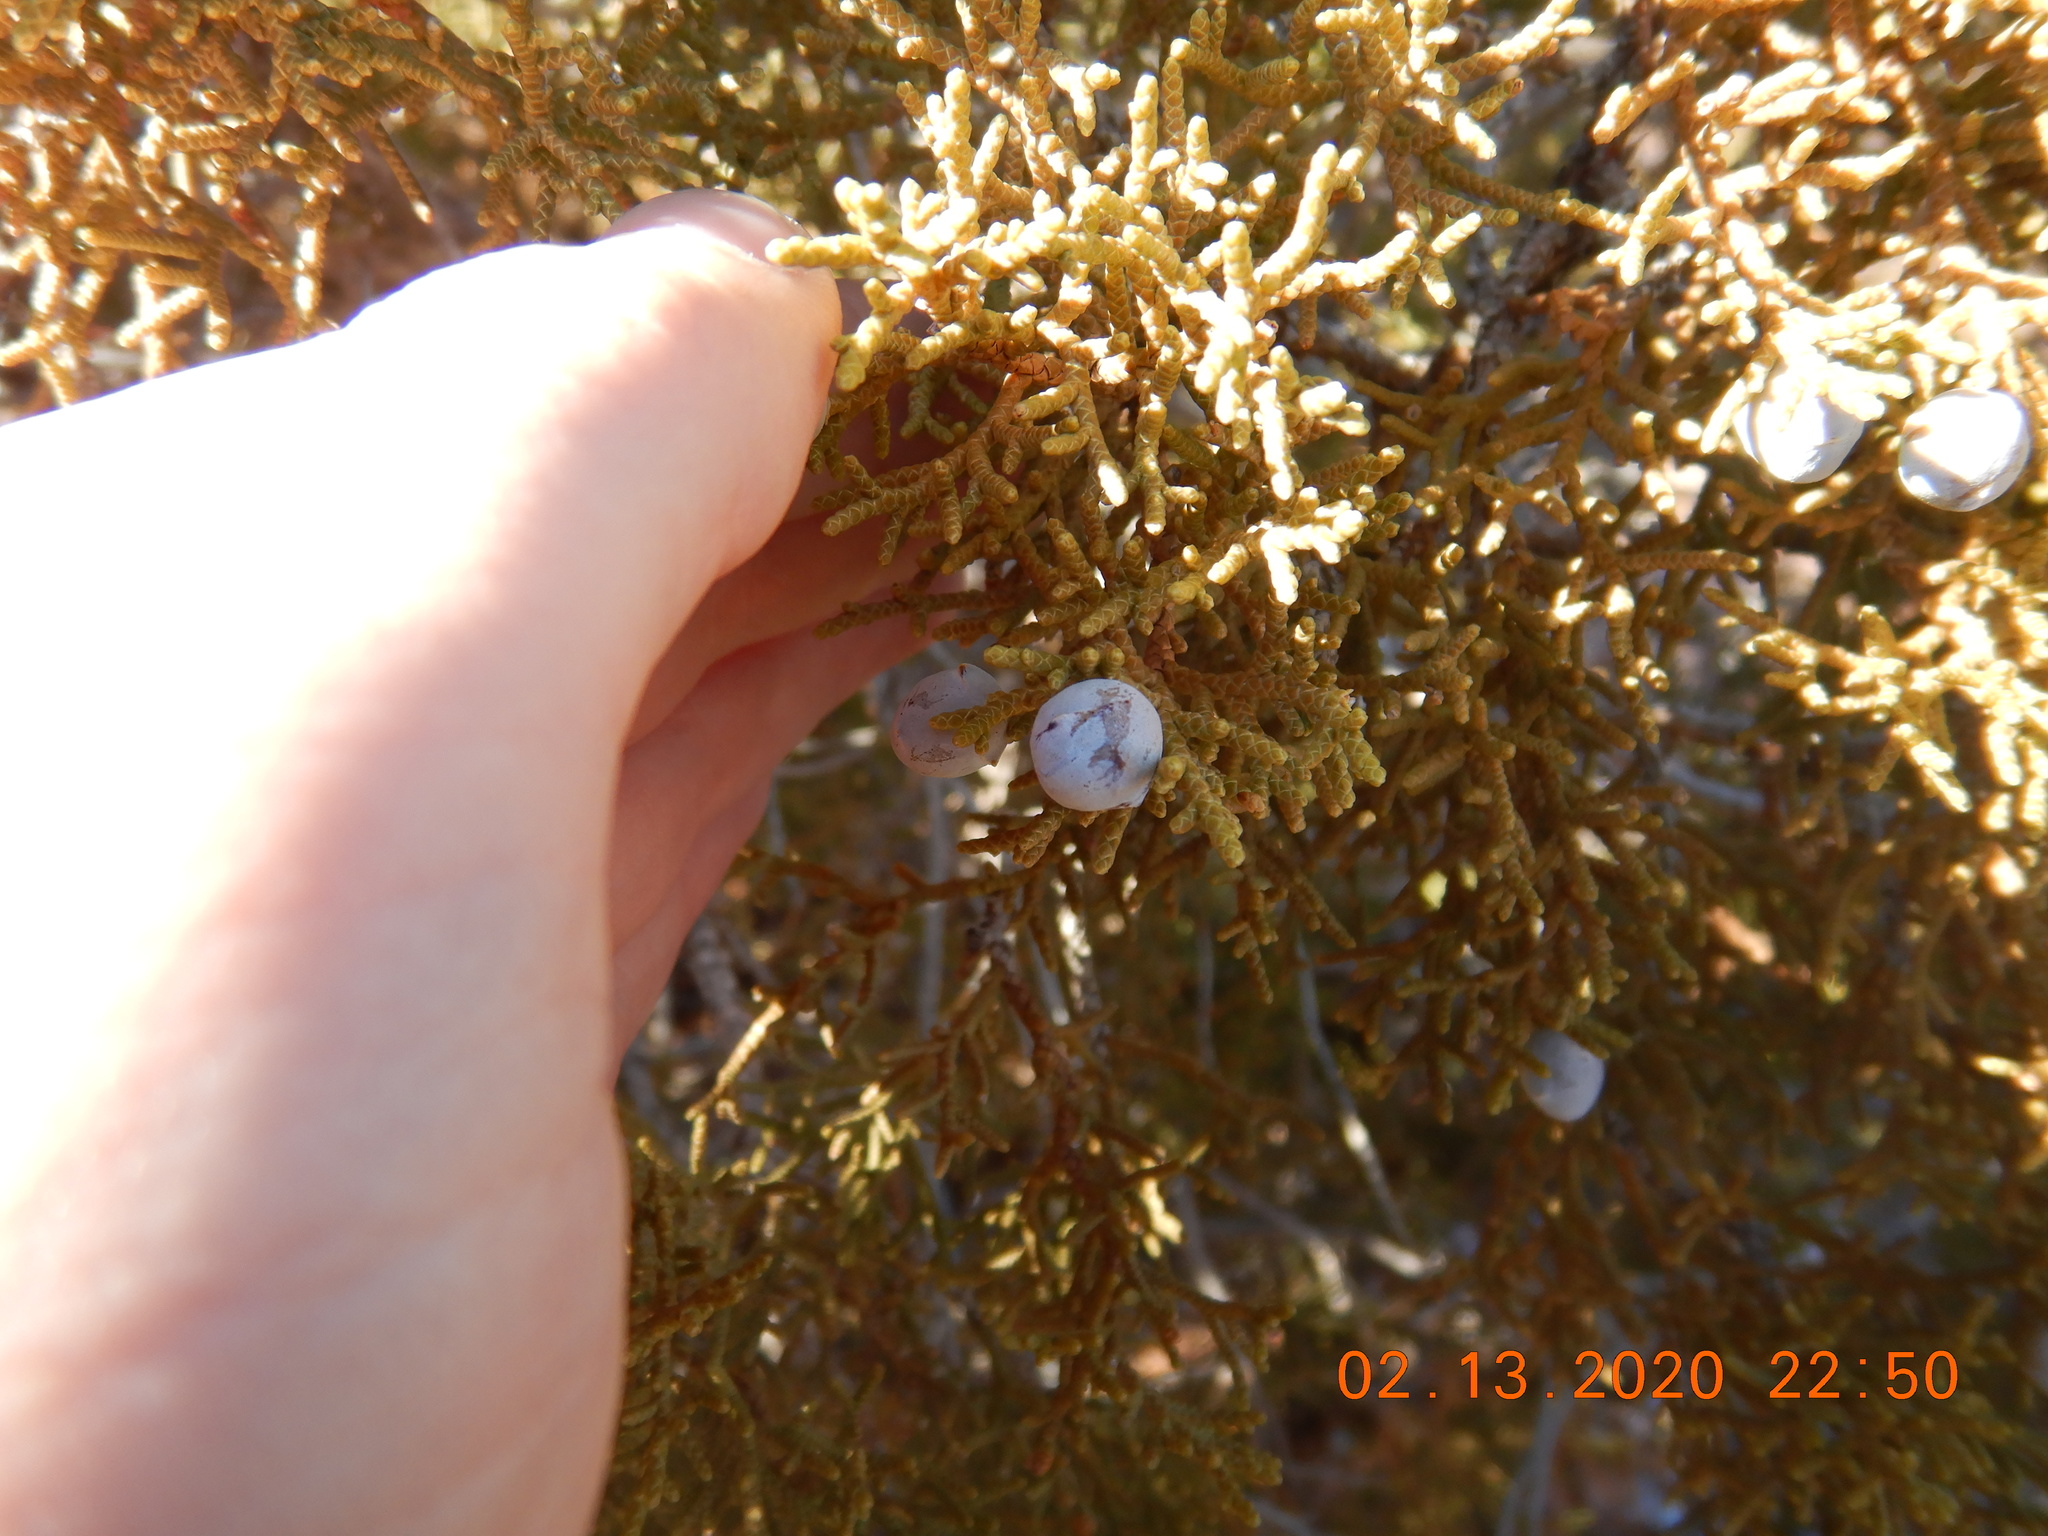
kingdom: Plantae
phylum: Tracheophyta
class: Pinopsida
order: Pinales
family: Cupressaceae
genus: Juniperus
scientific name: Juniperus osteosperma
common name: Utah juniper
